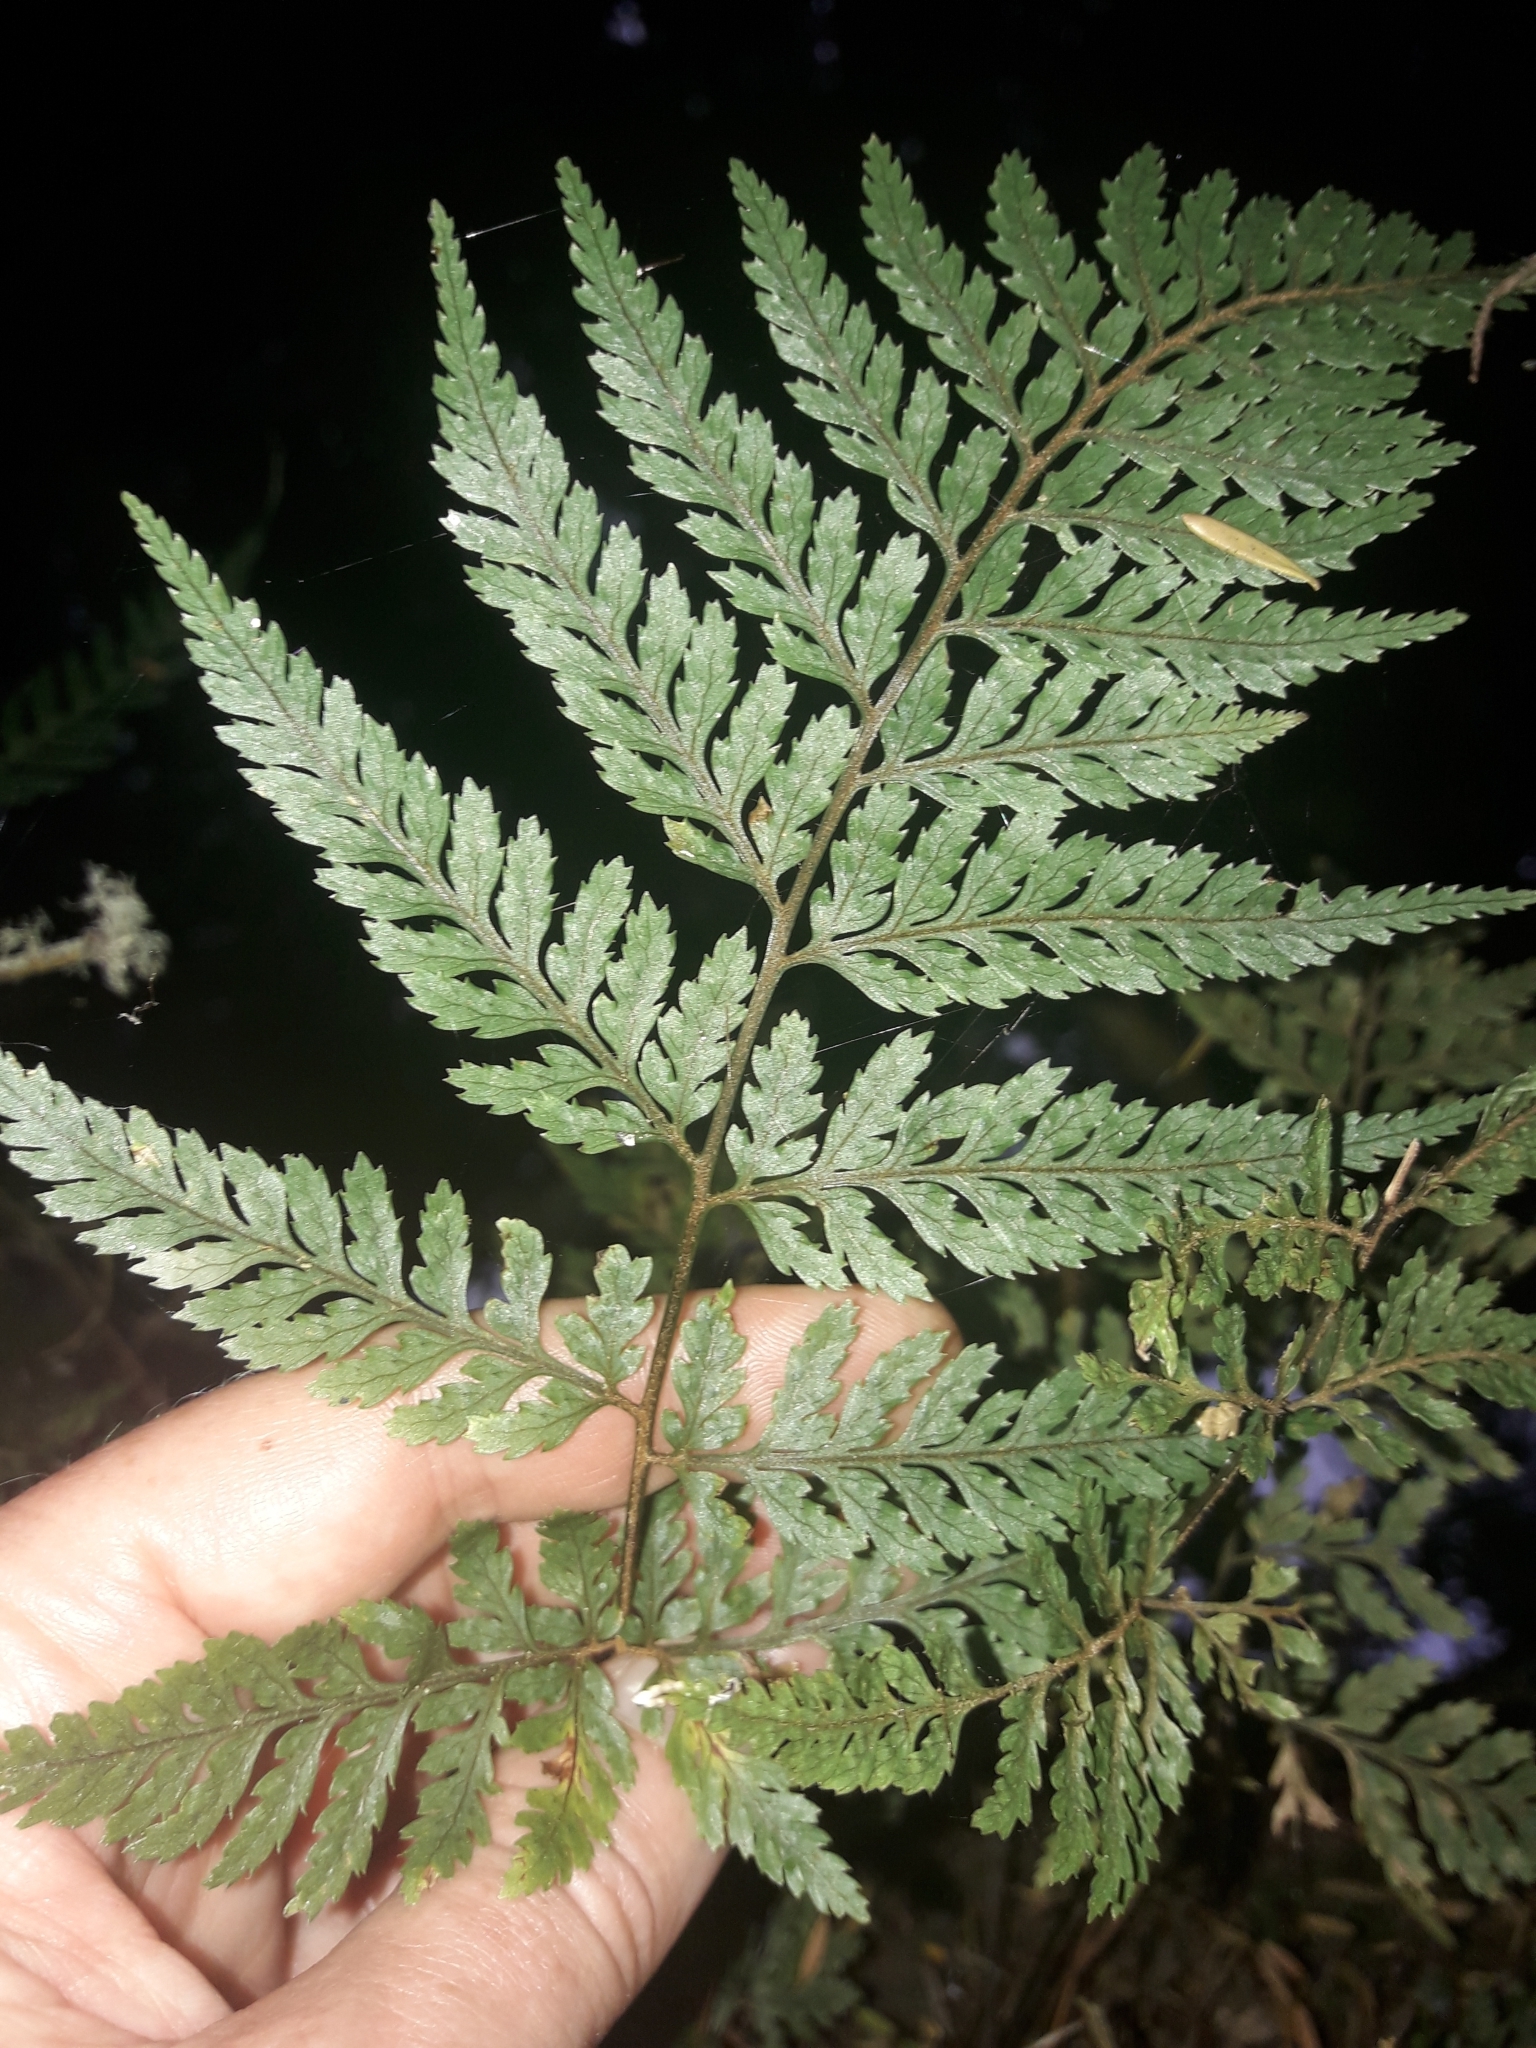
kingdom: Plantae
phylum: Tracheophyta
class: Polypodiopsida
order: Polypodiales
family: Dryopteridaceae
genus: Parapolystichum
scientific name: Parapolystichum glabellum
